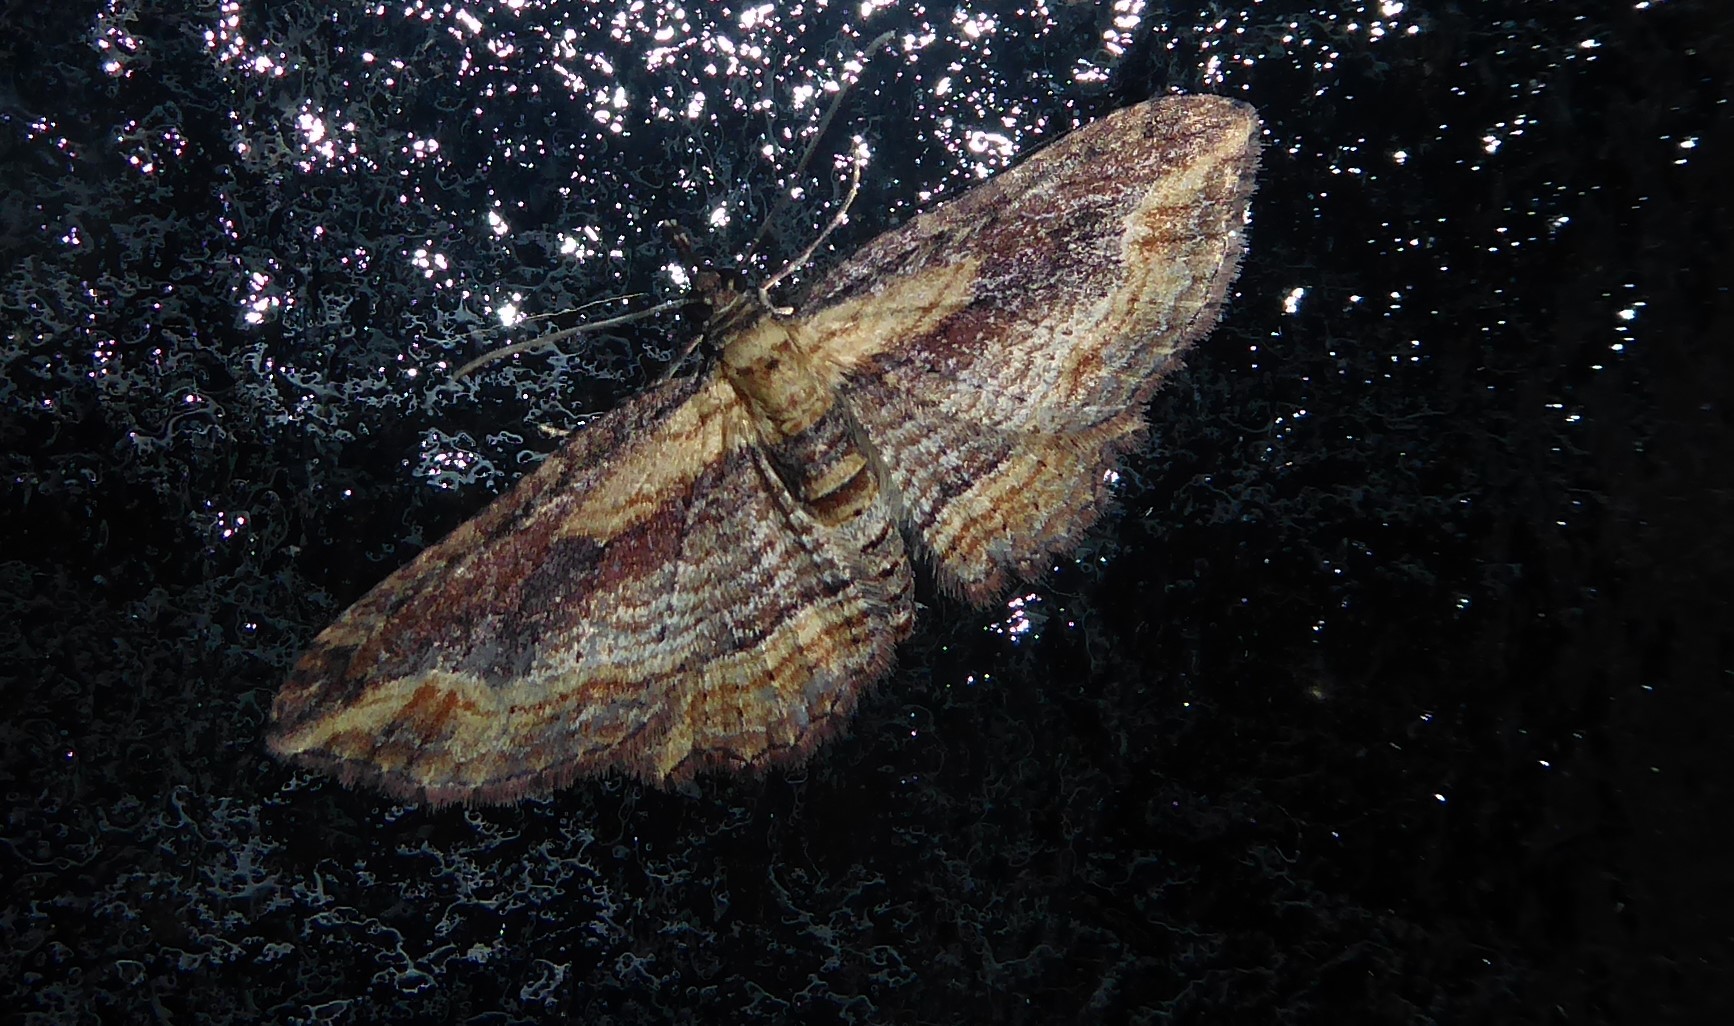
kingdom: Animalia
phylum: Arthropoda
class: Insecta
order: Lepidoptera
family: Geometridae
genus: Chloroclystis
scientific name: Chloroclystis filata
